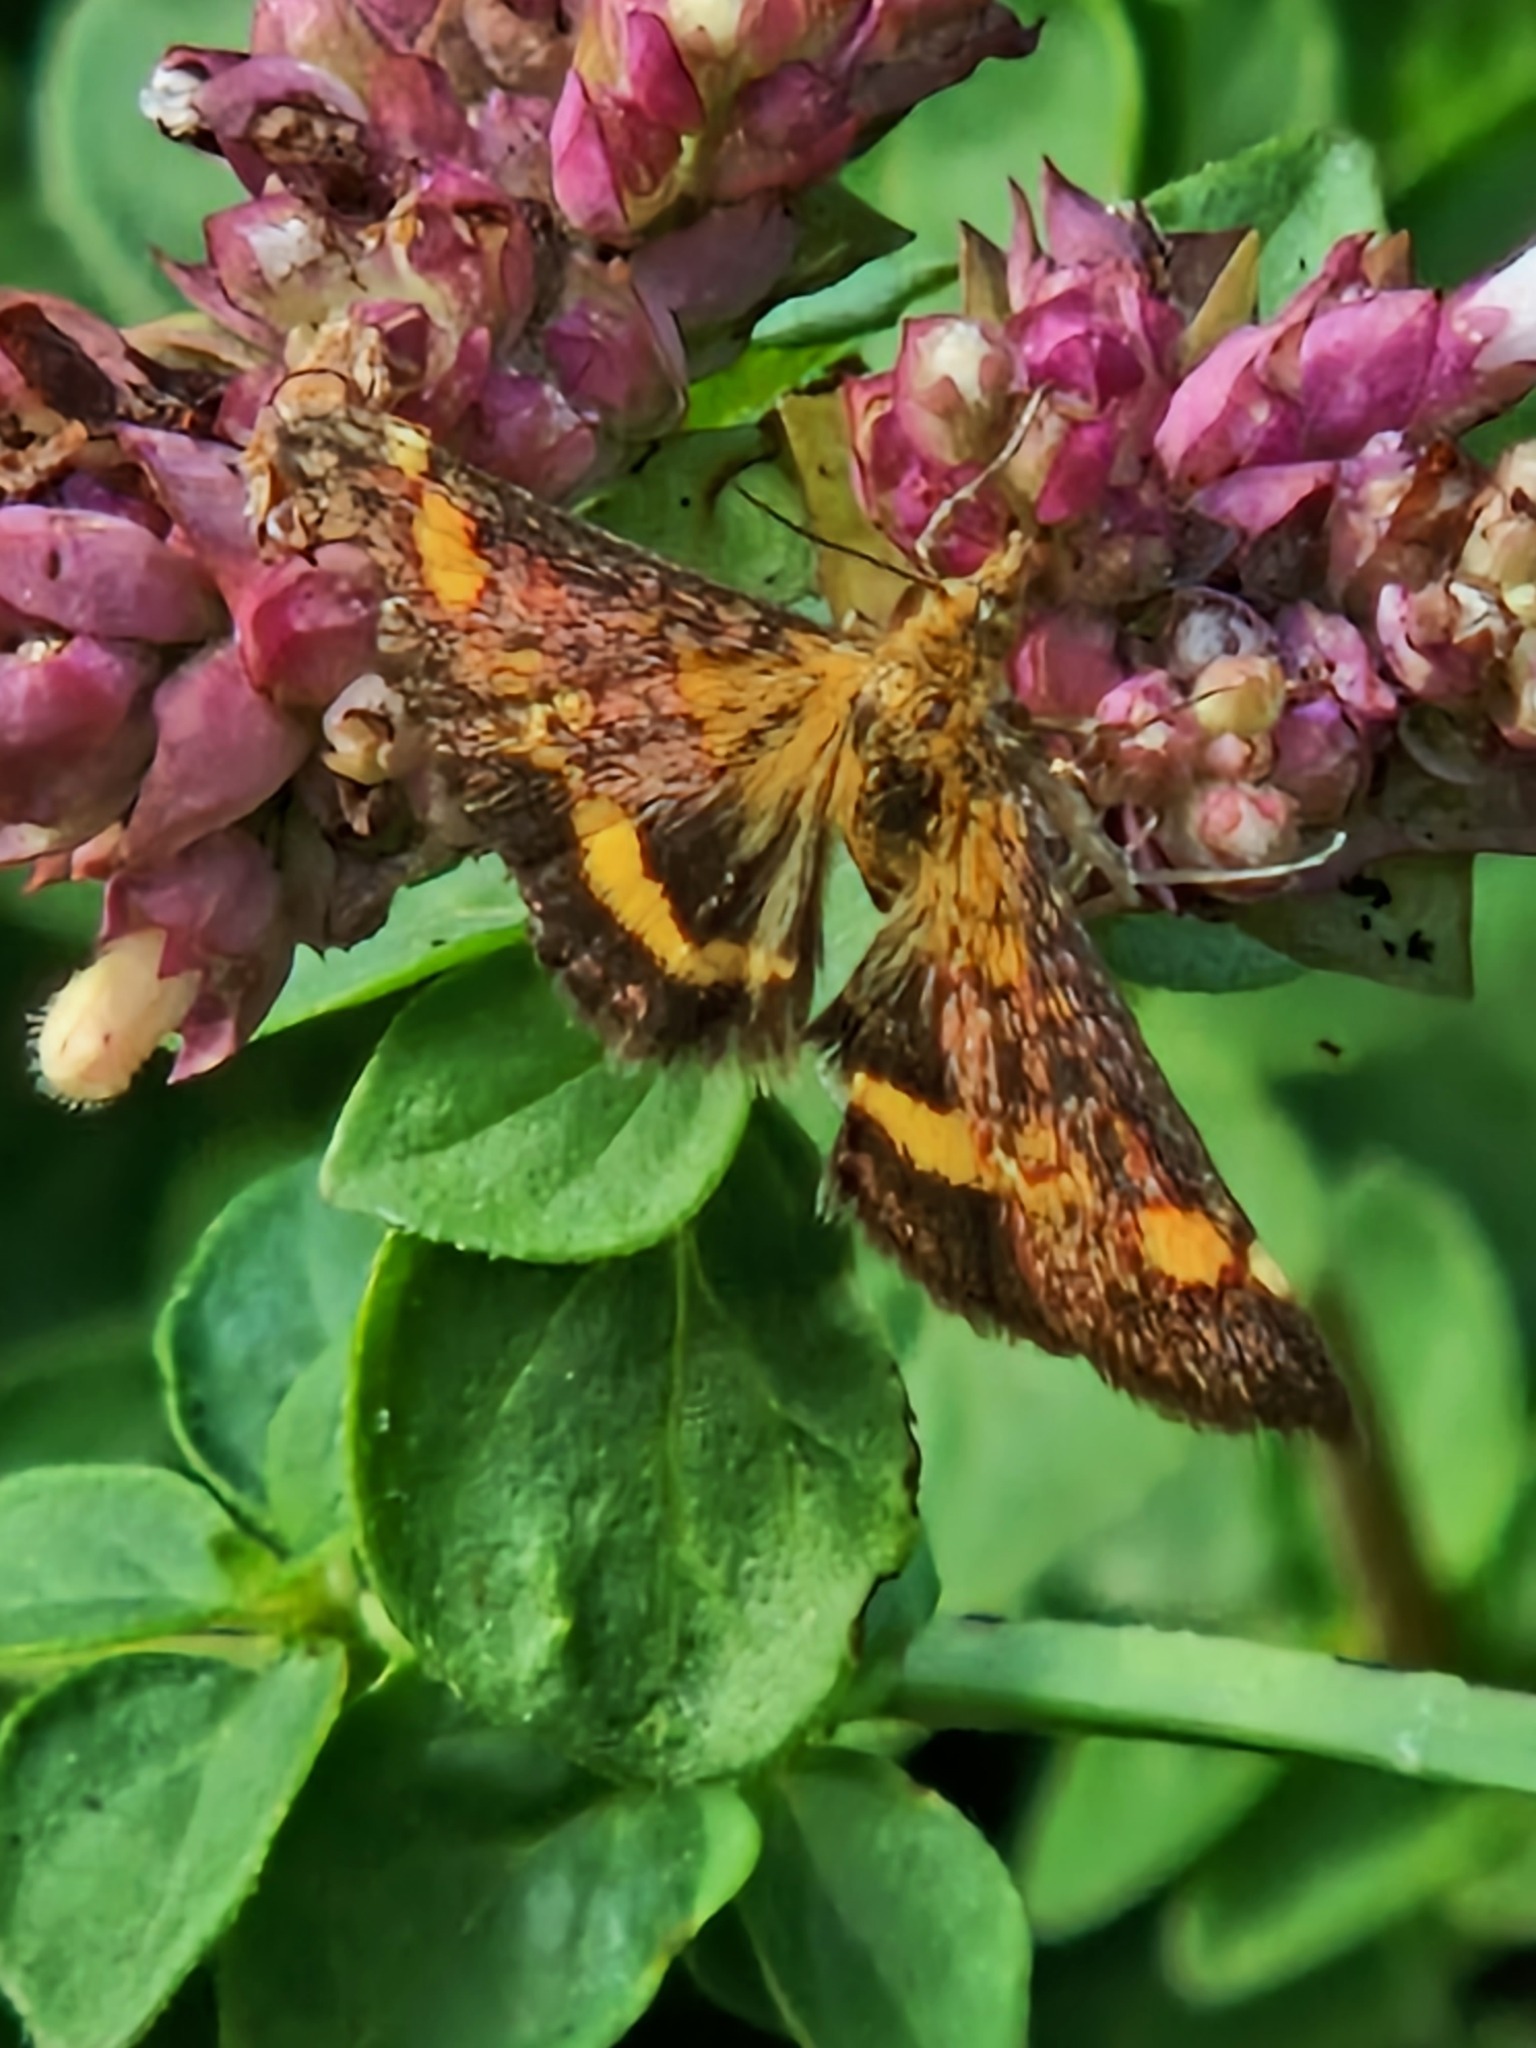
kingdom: Animalia
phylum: Arthropoda
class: Insecta
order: Lepidoptera
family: Crambidae
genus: Pyrausta
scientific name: Pyrausta aurata
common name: Small purple & gold
